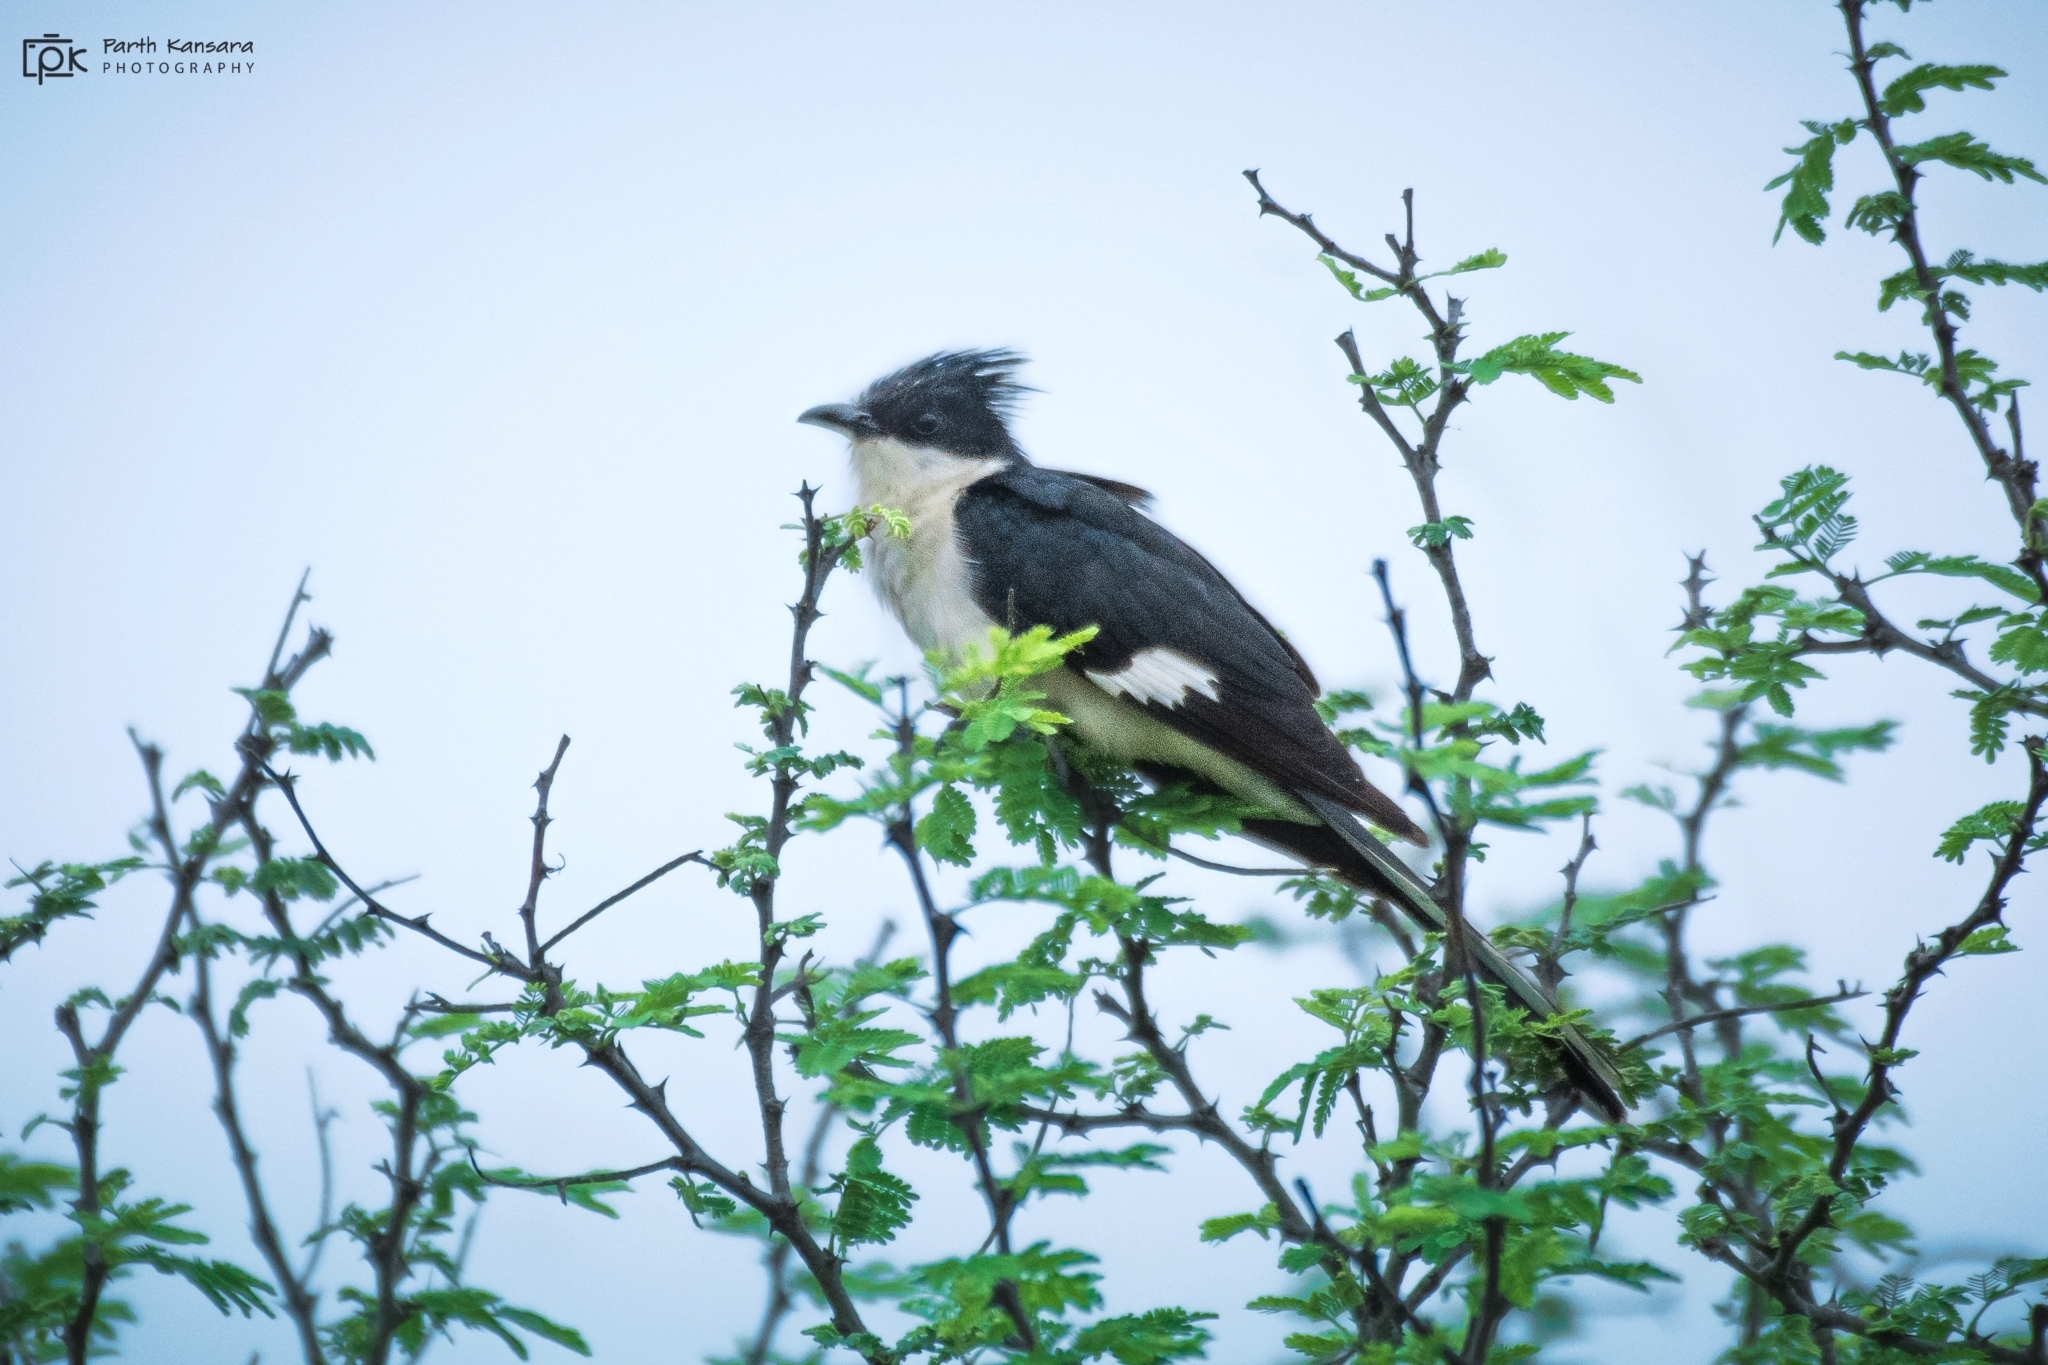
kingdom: Animalia
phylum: Chordata
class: Aves
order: Cuculiformes
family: Cuculidae
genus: Clamator
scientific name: Clamator jacobinus
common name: Jacobin cuckoo
